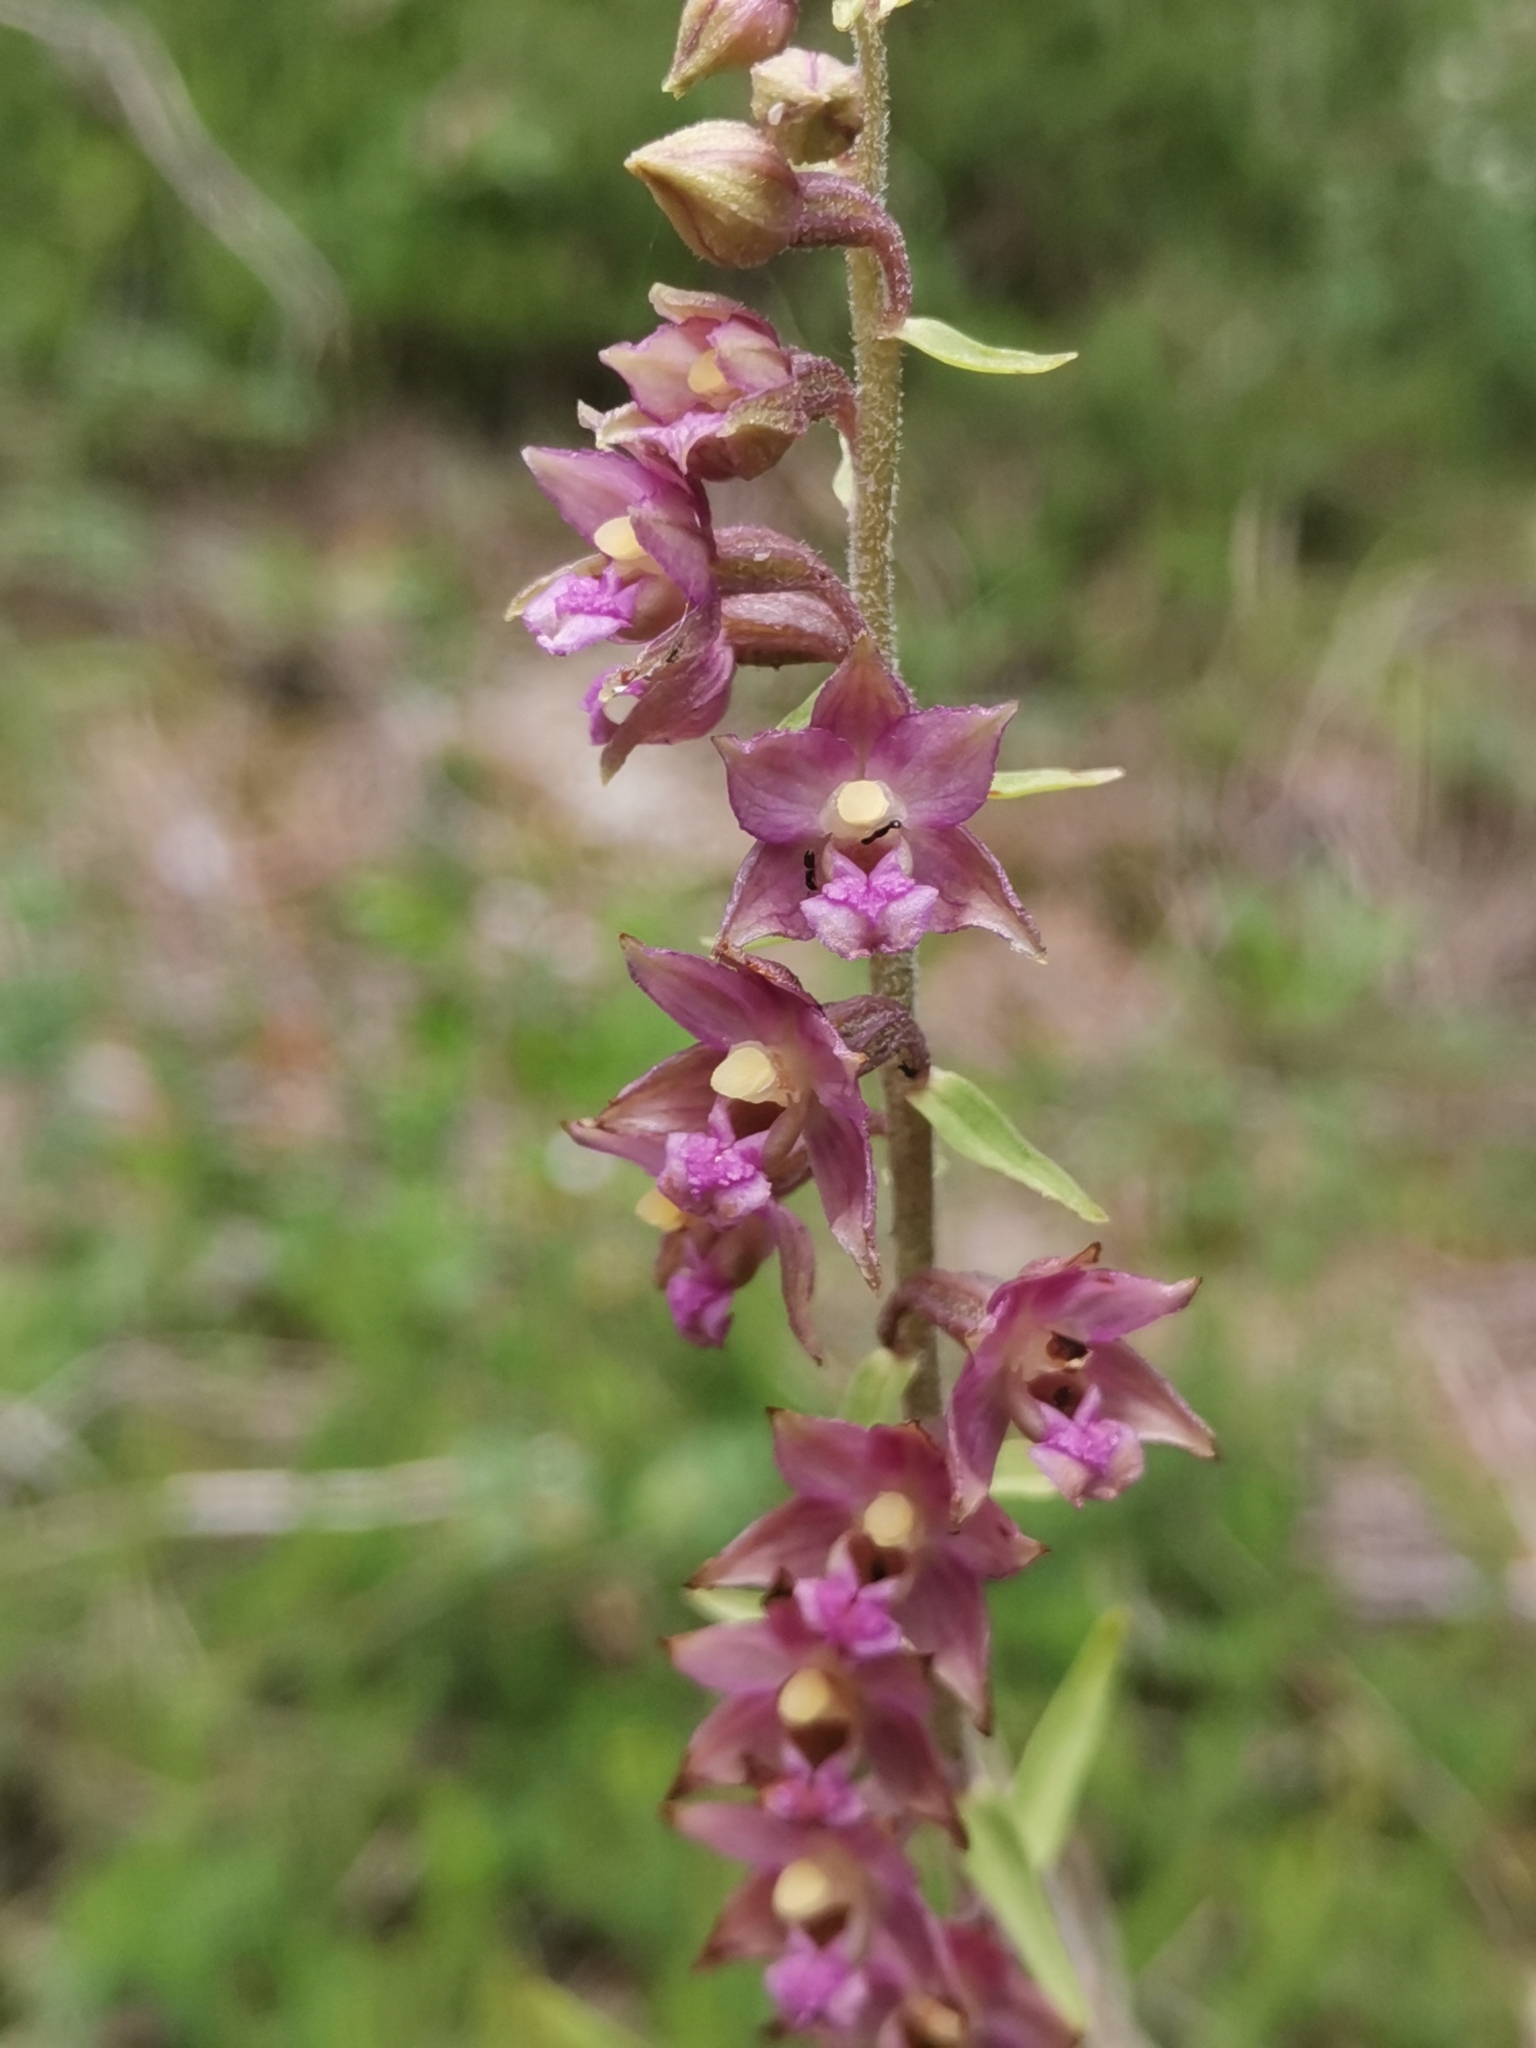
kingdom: Plantae
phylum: Tracheophyta
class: Liliopsida
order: Asparagales
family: Orchidaceae
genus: Epipactis
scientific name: Epipactis atrorubens
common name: Dark-red helleborine
